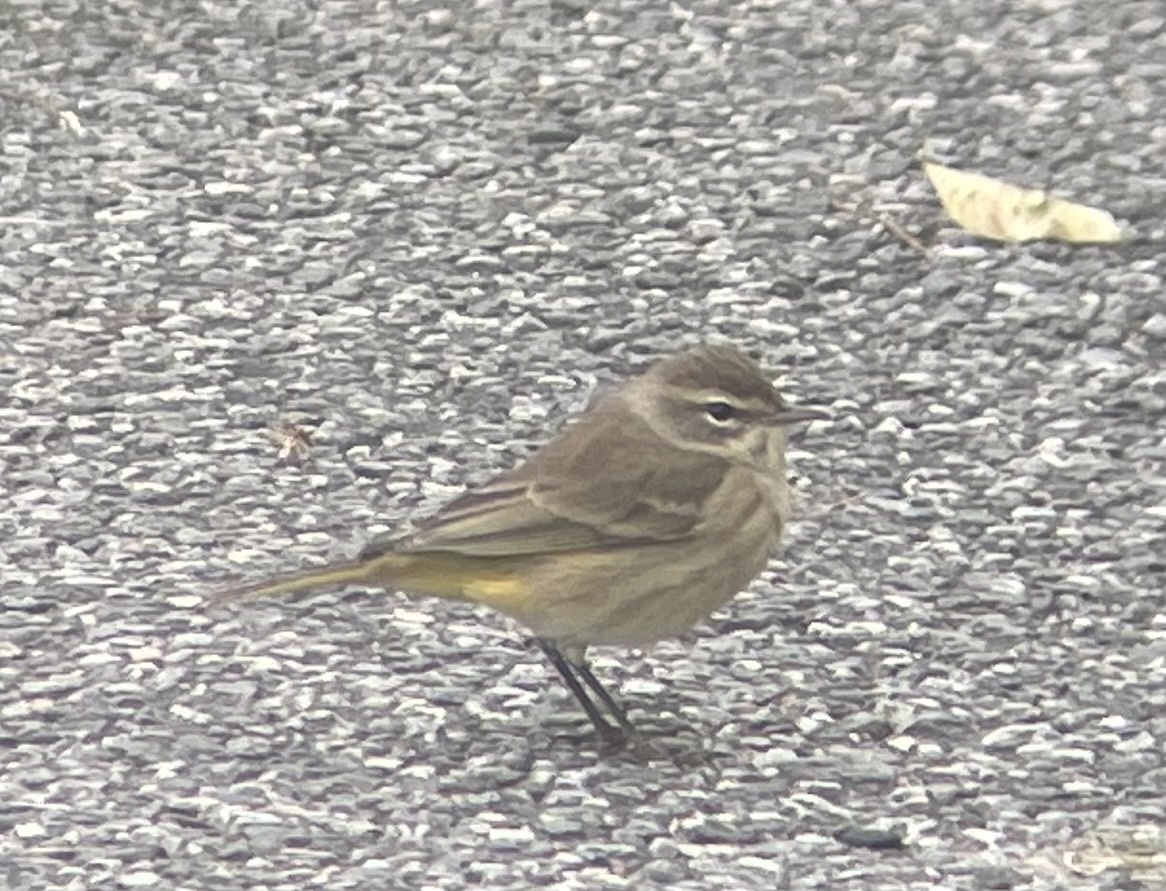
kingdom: Animalia
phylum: Chordata
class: Aves
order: Passeriformes
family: Parulidae
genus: Setophaga
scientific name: Setophaga palmarum
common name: Palm warbler
